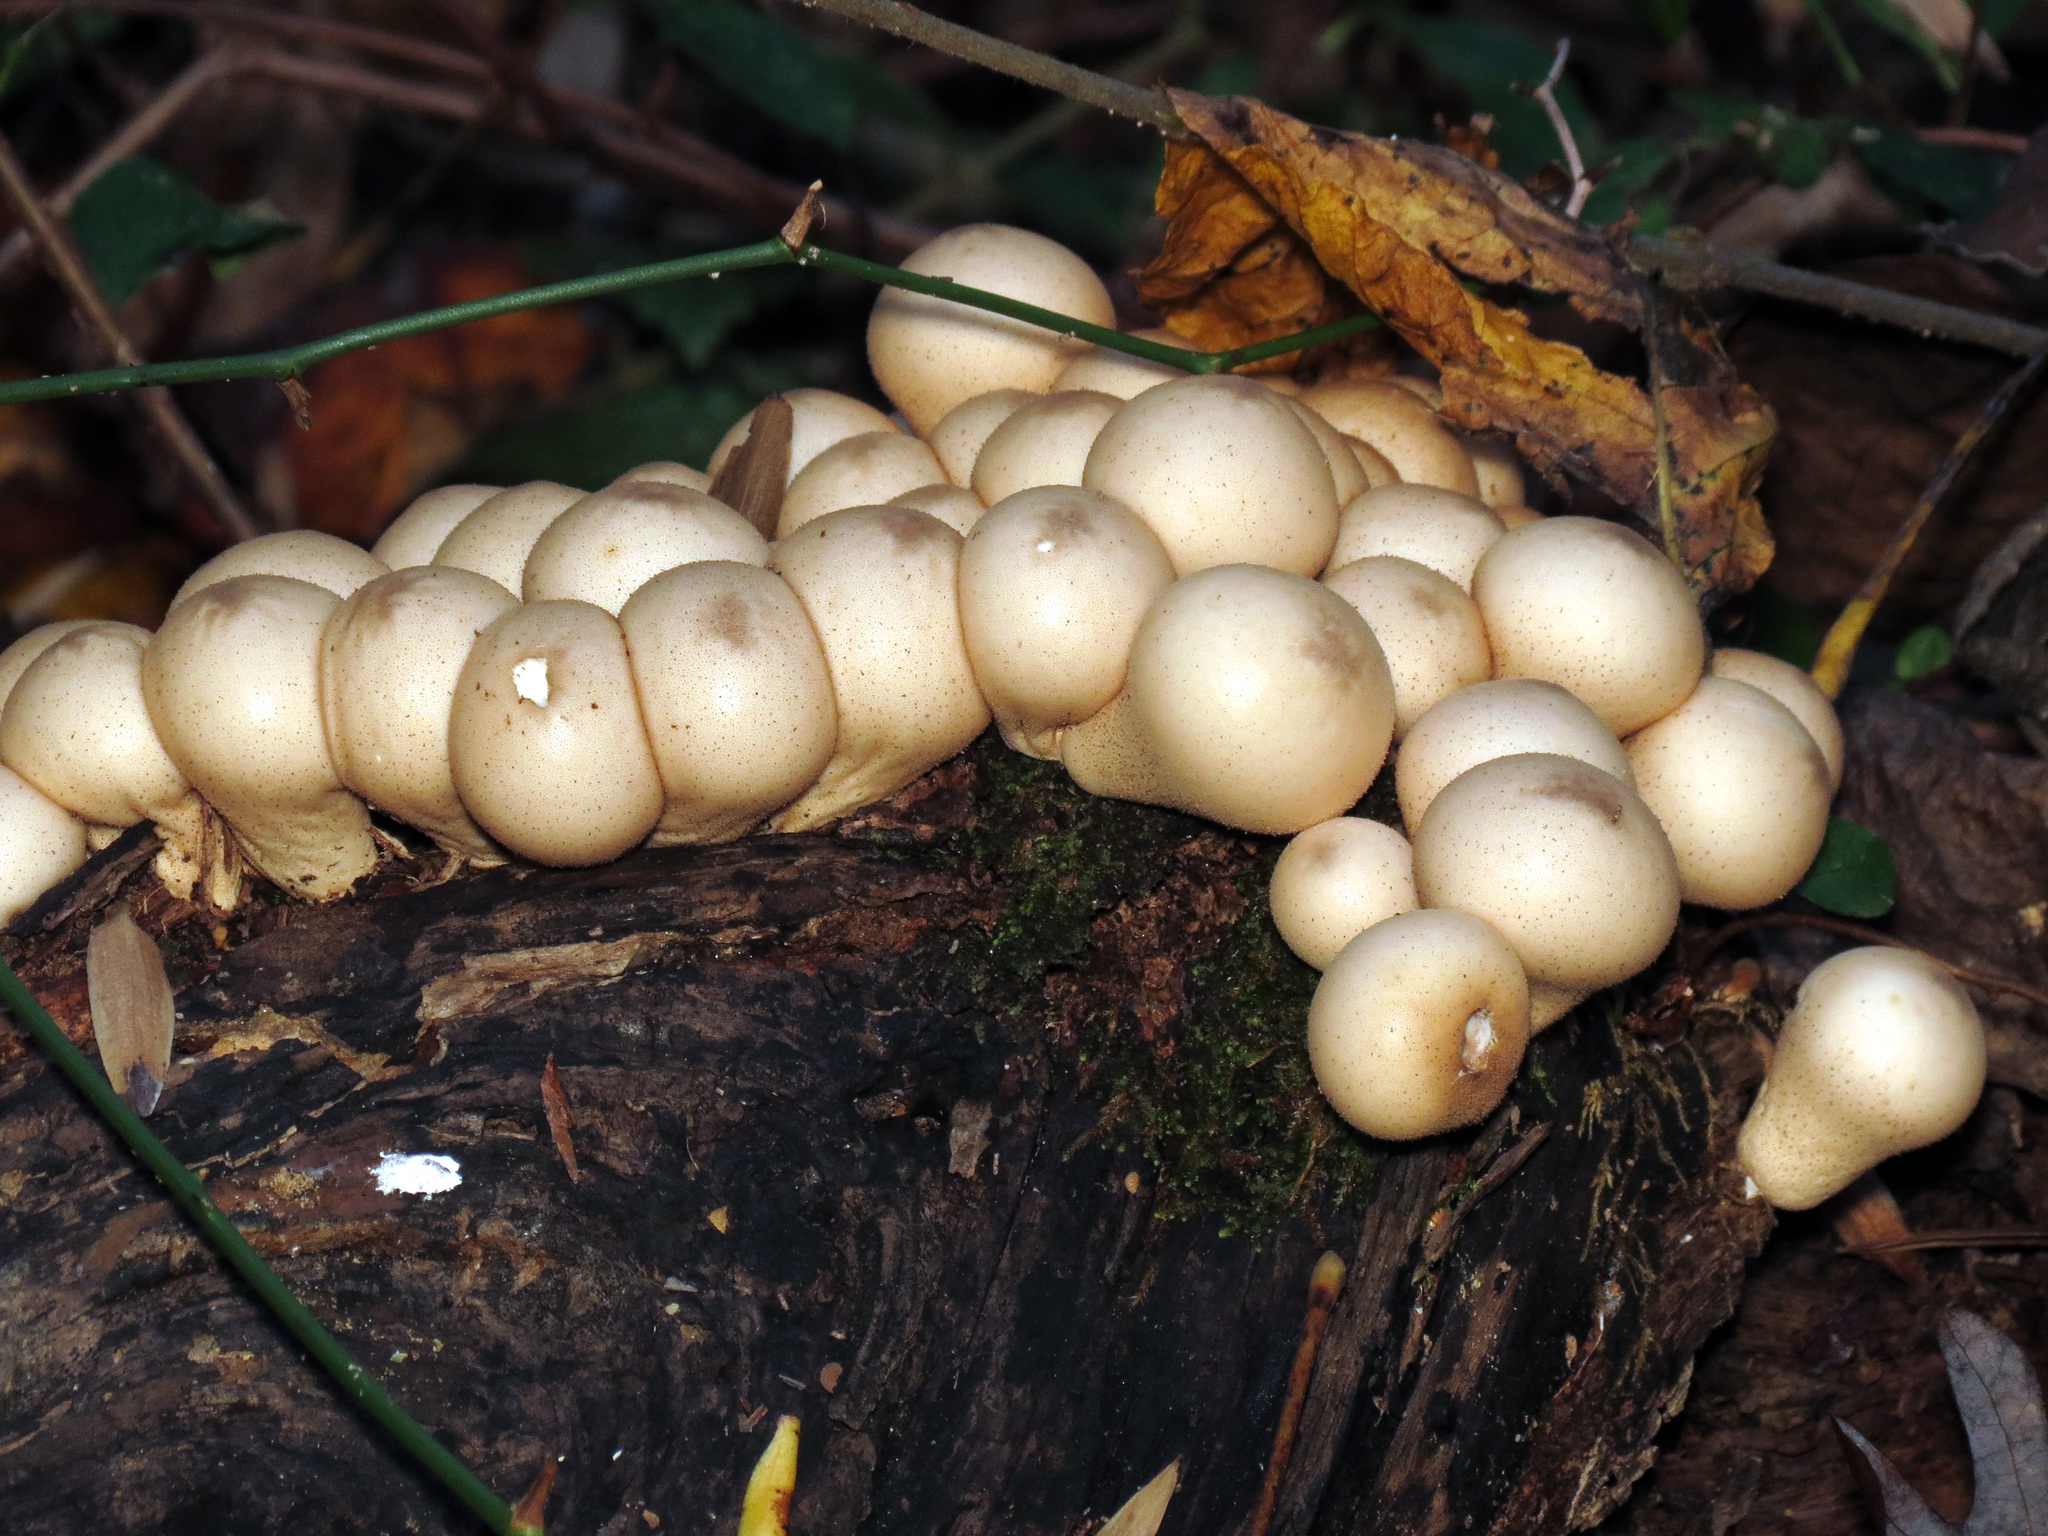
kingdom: Fungi
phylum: Basidiomycota
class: Agaricomycetes
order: Agaricales
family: Lycoperdaceae
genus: Apioperdon
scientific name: Apioperdon pyriforme
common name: Pear-shaped puffball
